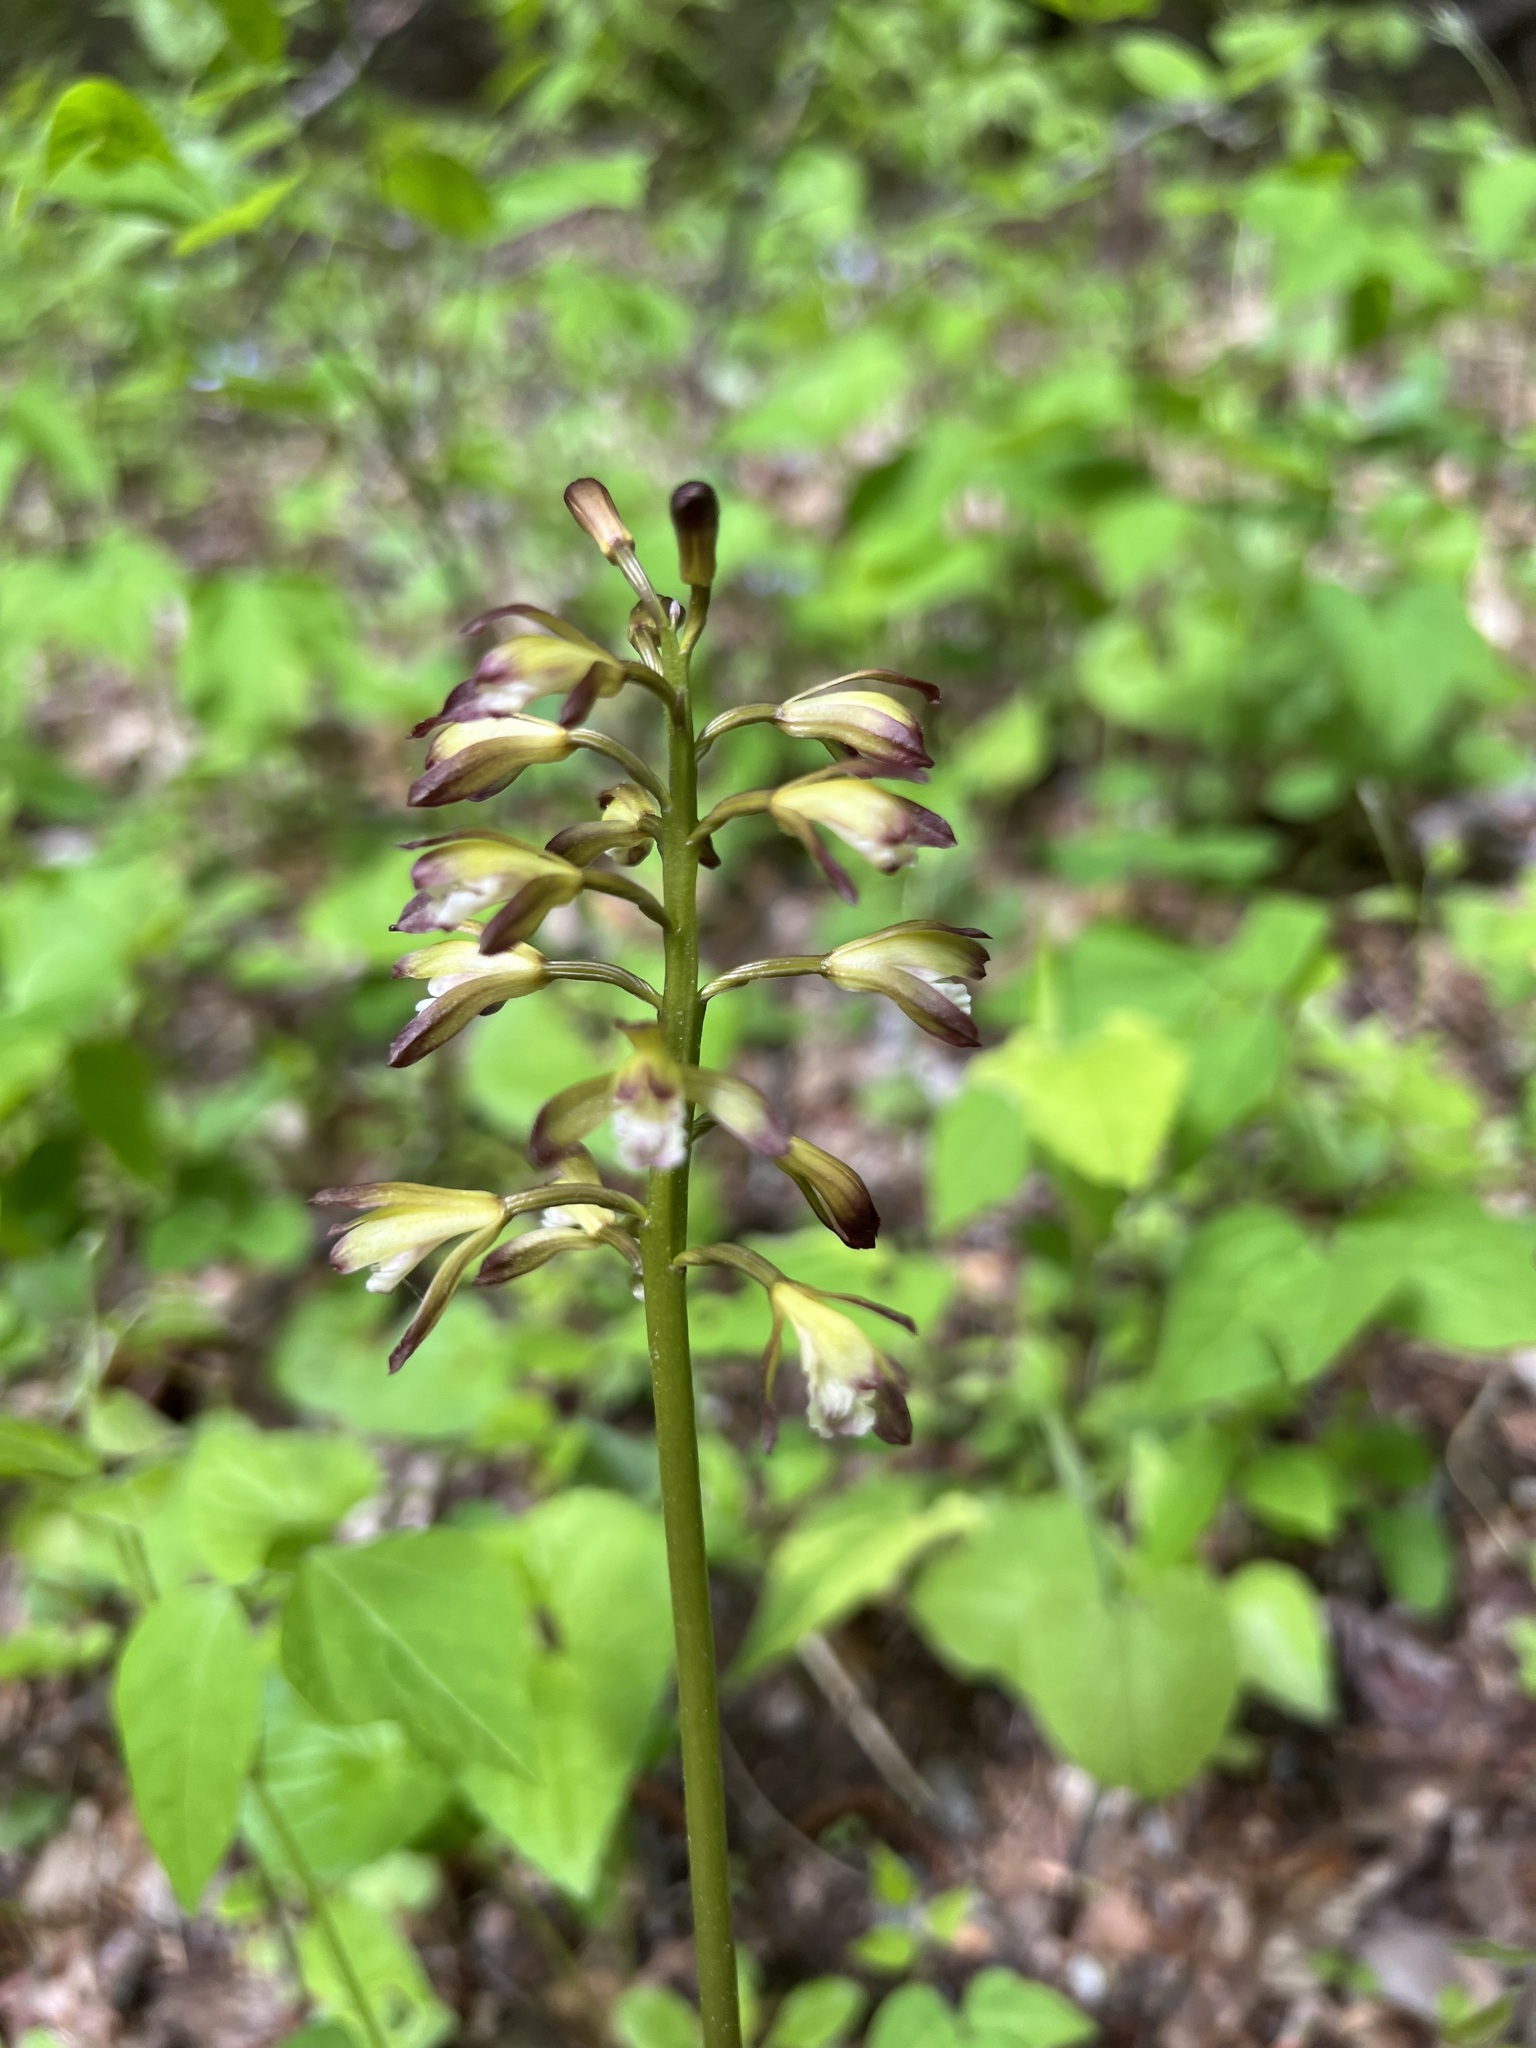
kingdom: Plantae
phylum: Tracheophyta
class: Liliopsida
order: Asparagales
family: Orchidaceae
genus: Aplectrum
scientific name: Aplectrum hyemale
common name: Adam-and-eve
